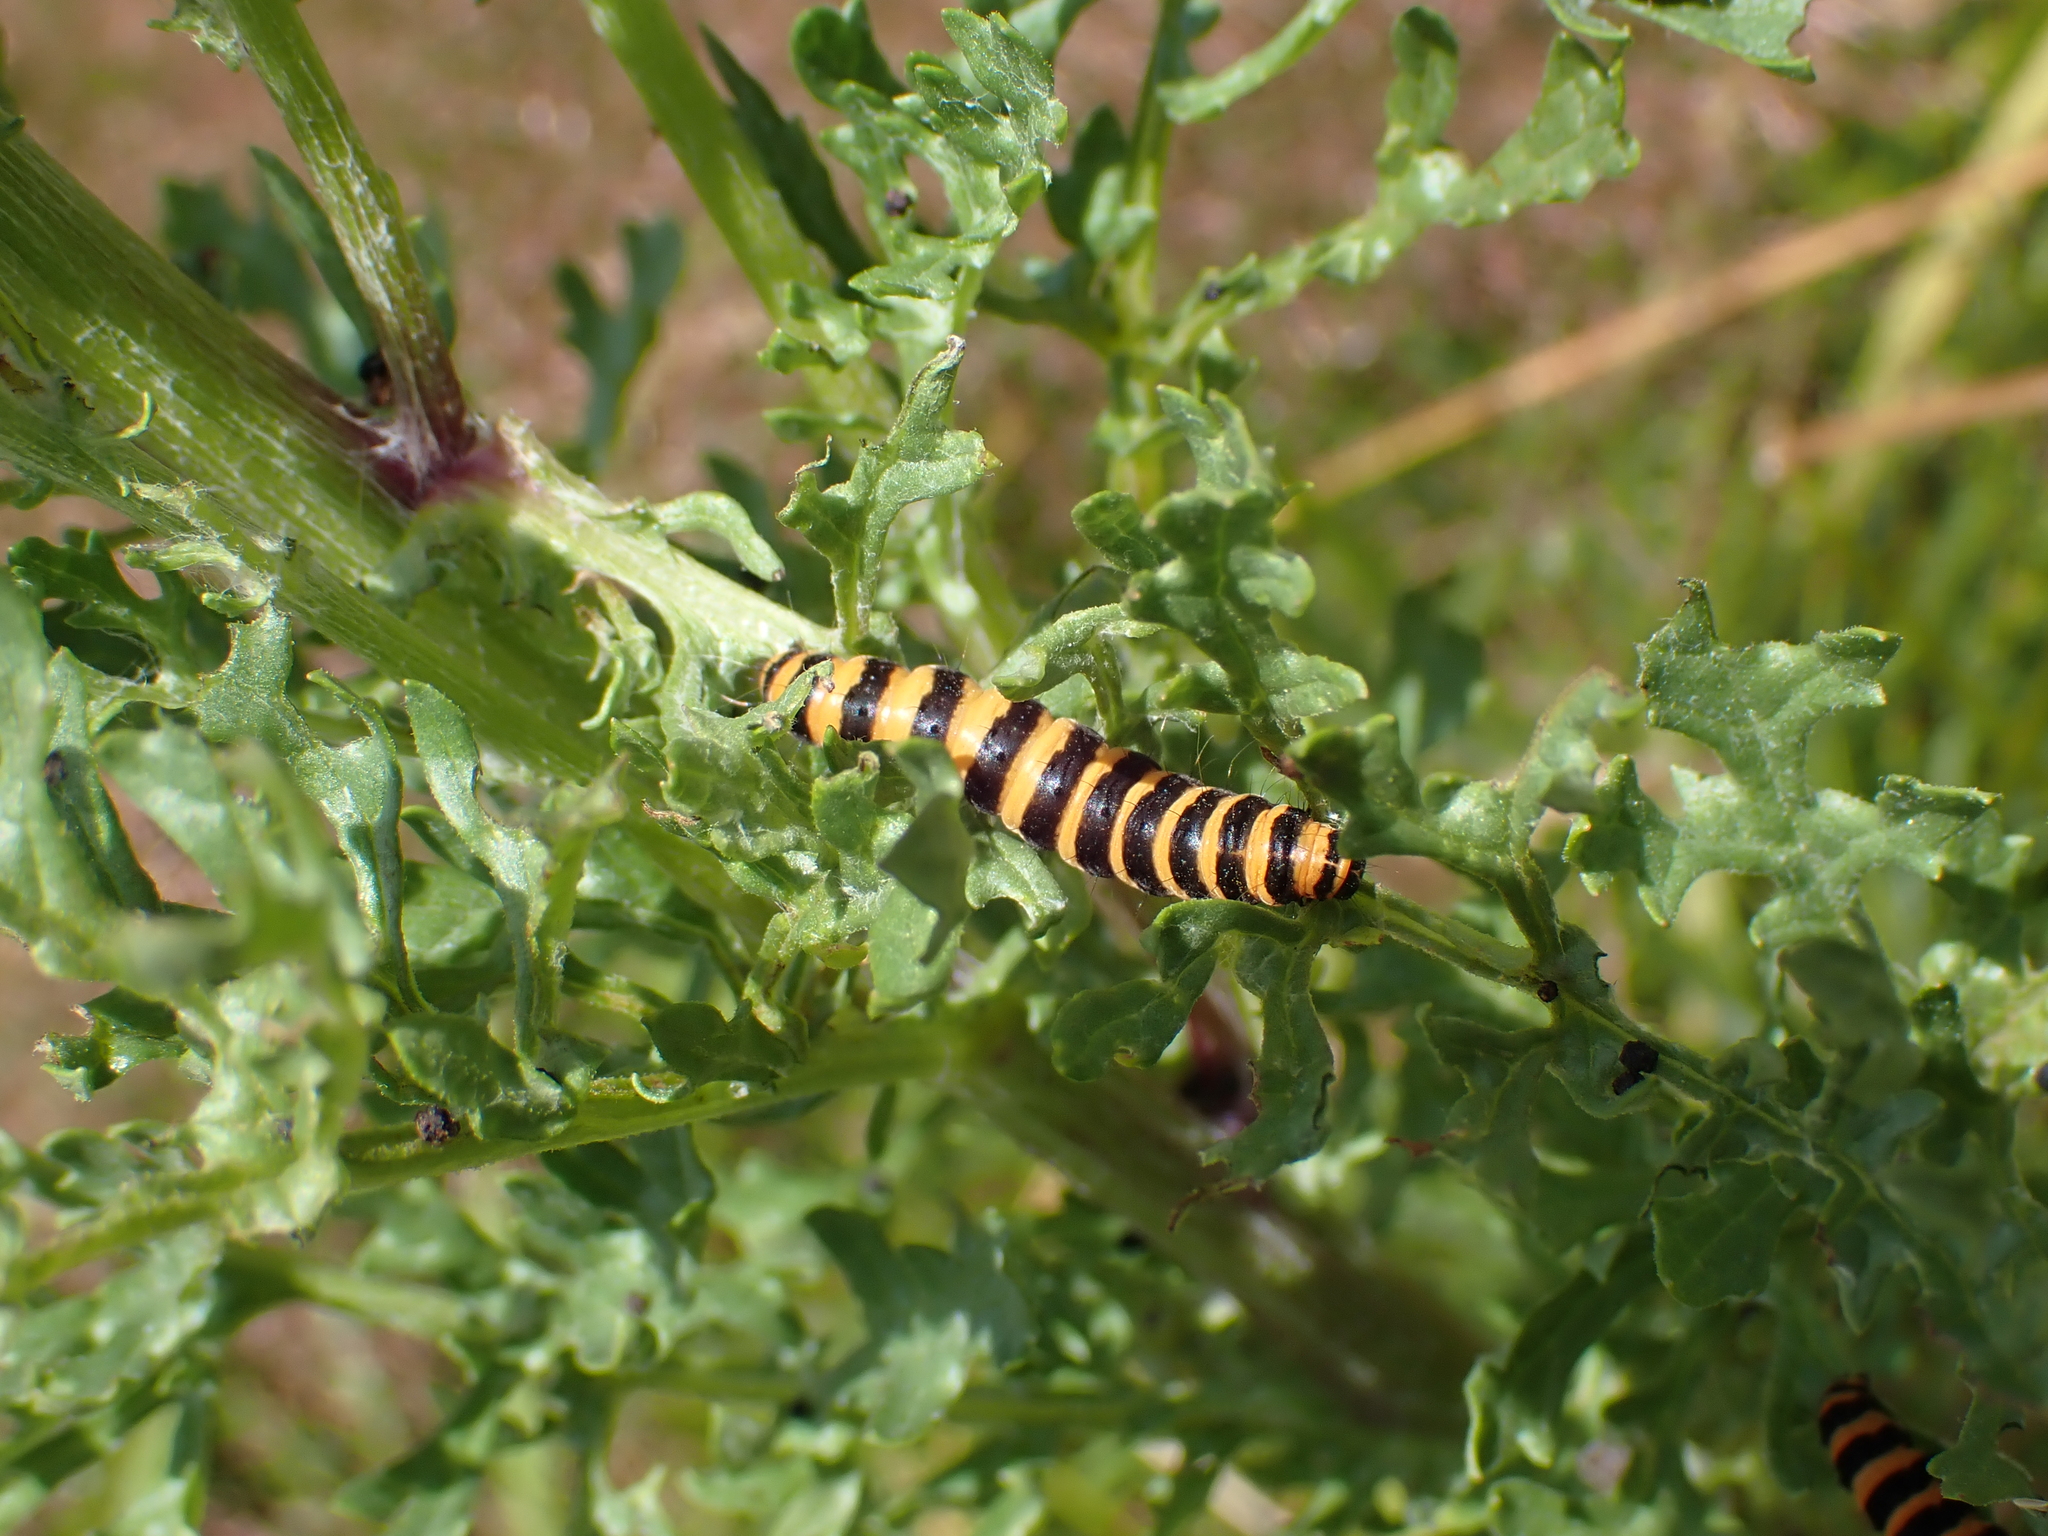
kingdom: Animalia
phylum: Arthropoda
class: Insecta
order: Lepidoptera
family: Erebidae
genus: Tyria
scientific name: Tyria jacobaeae
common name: Cinnabar
